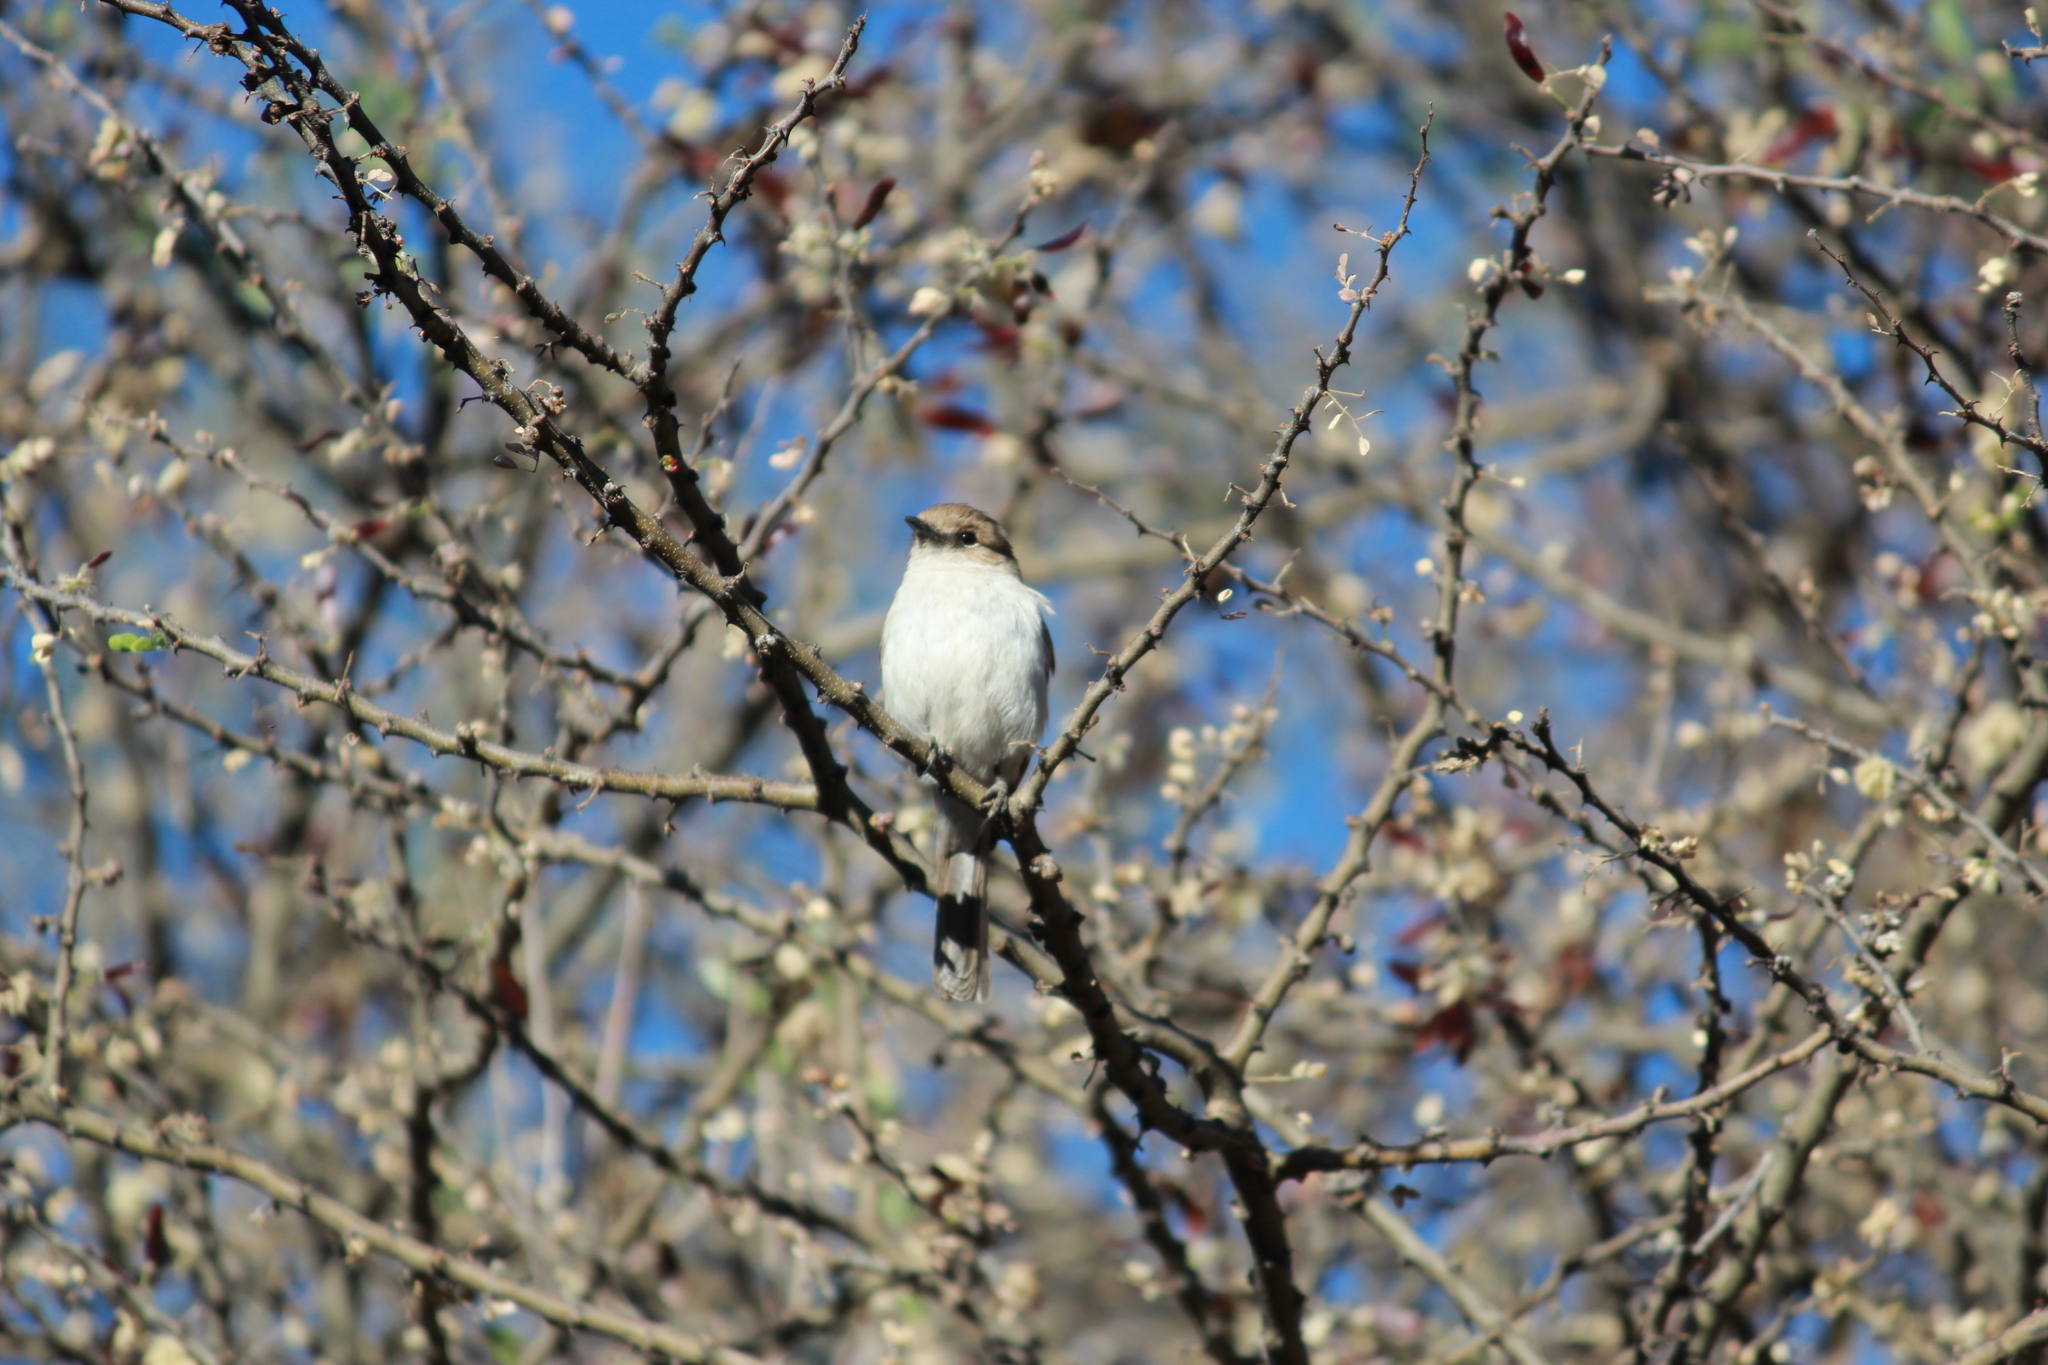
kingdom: Animalia
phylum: Chordata
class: Aves
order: Passeriformes
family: Muscicapidae
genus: Bradornis
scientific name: Bradornis mariquensis
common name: Marico flycatcher
